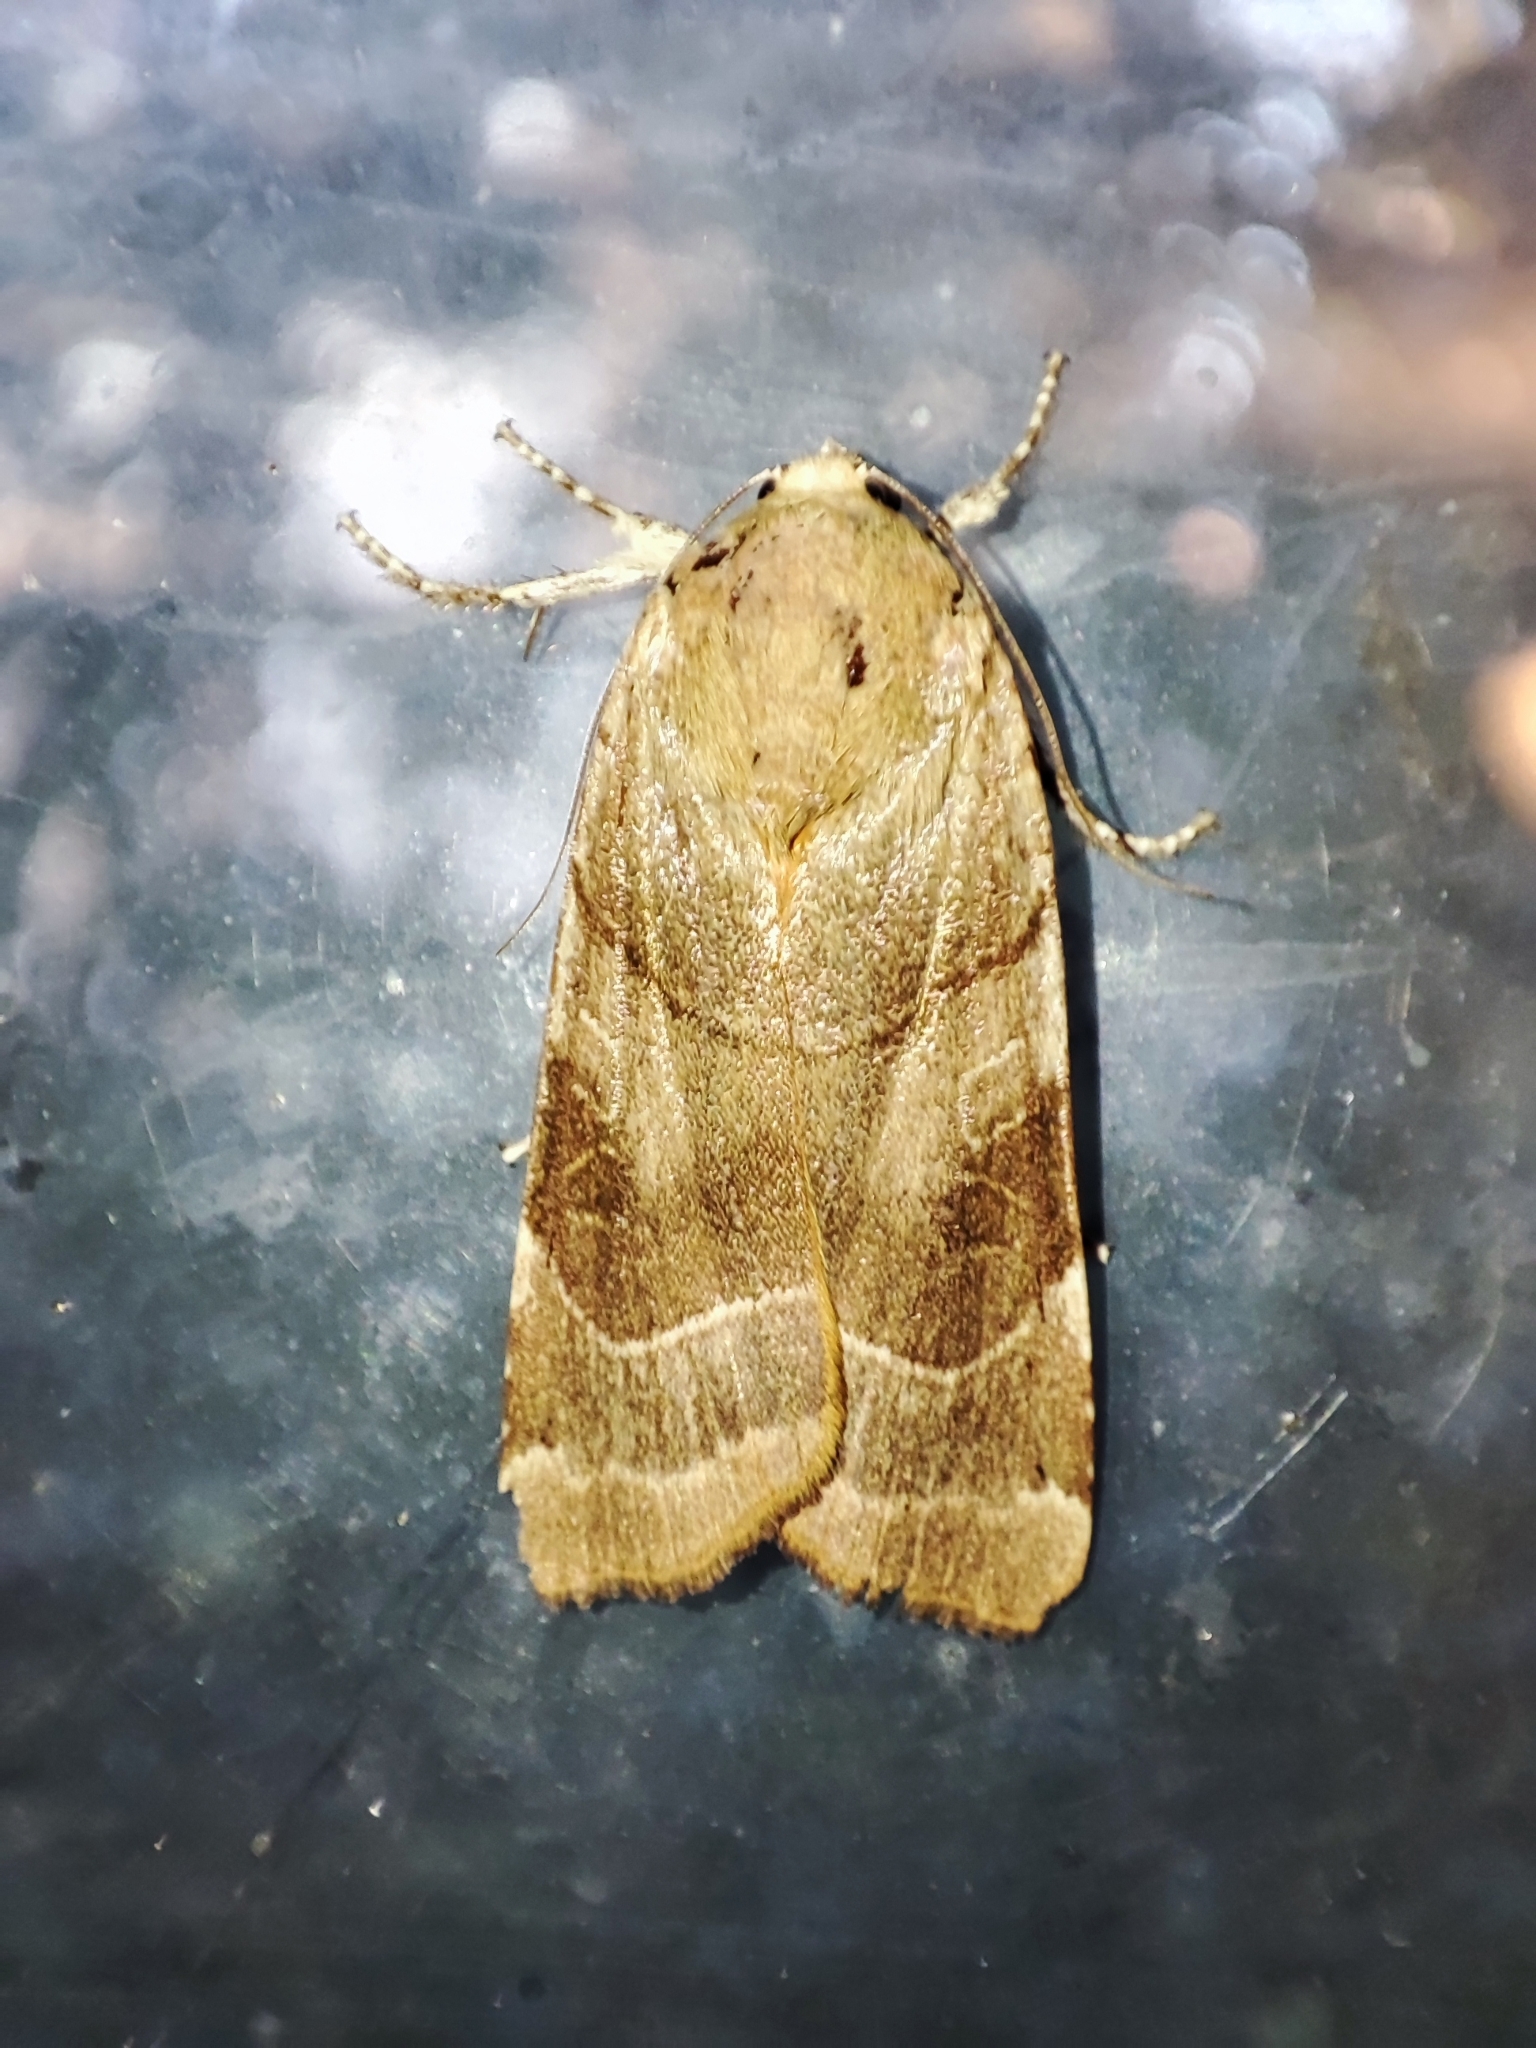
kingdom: Animalia
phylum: Arthropoda
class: Insecta
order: Lepidoptera
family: Noctuidae
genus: Noctua
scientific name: Noctua fimbriata
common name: Broad-bordered yellow underwing
